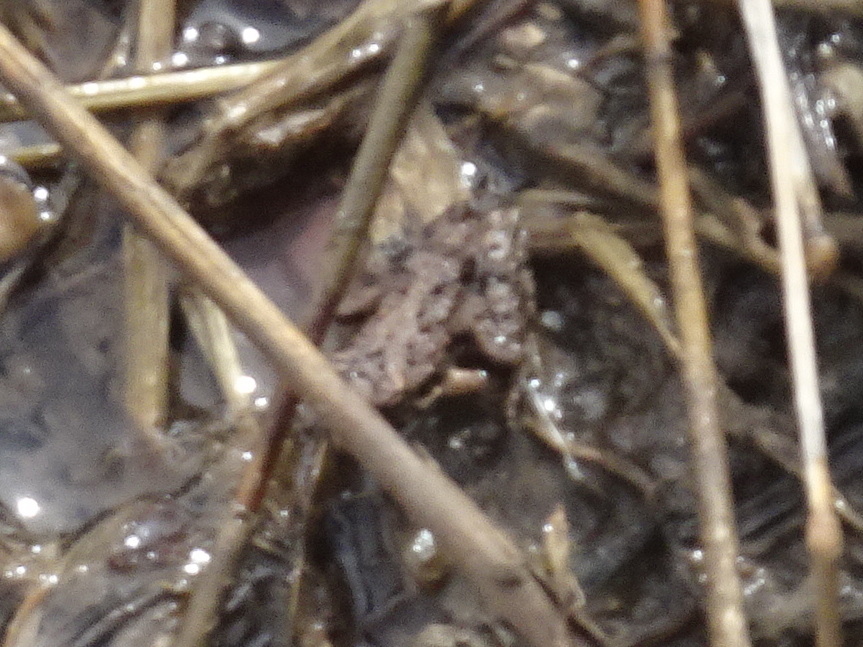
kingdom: Animalia
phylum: Chordata
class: Amphibia
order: Anura
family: Hylidae
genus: Acris
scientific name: Acris blanchardi
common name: Blanchard's cricket frog
